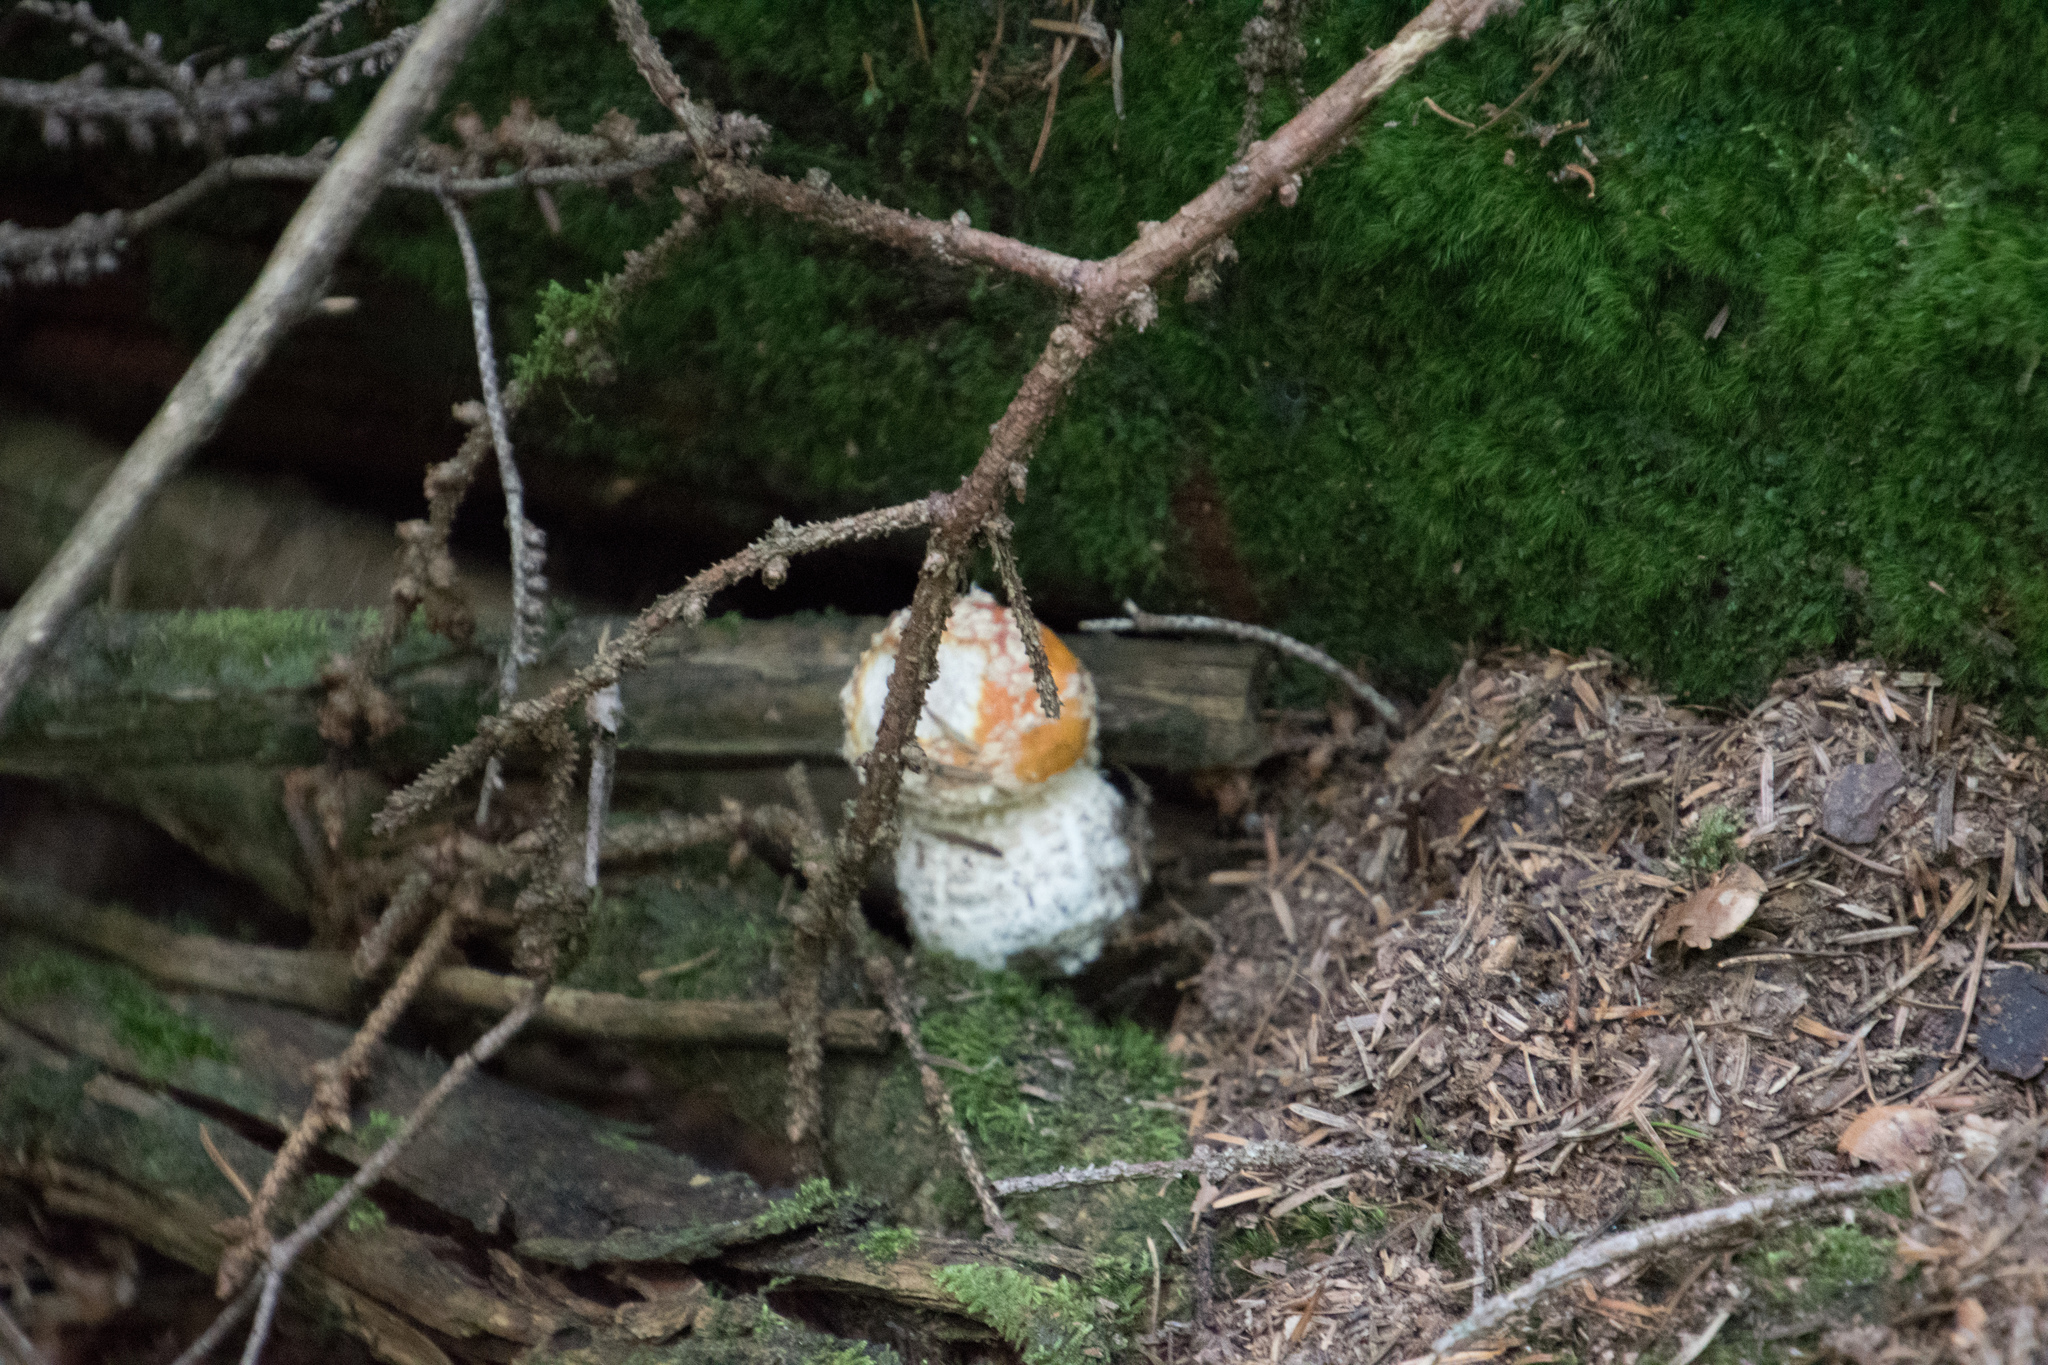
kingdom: Fungi
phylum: Basidiomycota
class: Agaricomycetes
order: Agaricales
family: Amanitaceae
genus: Amanita
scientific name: Amanita muscaria
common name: Fly agaric
